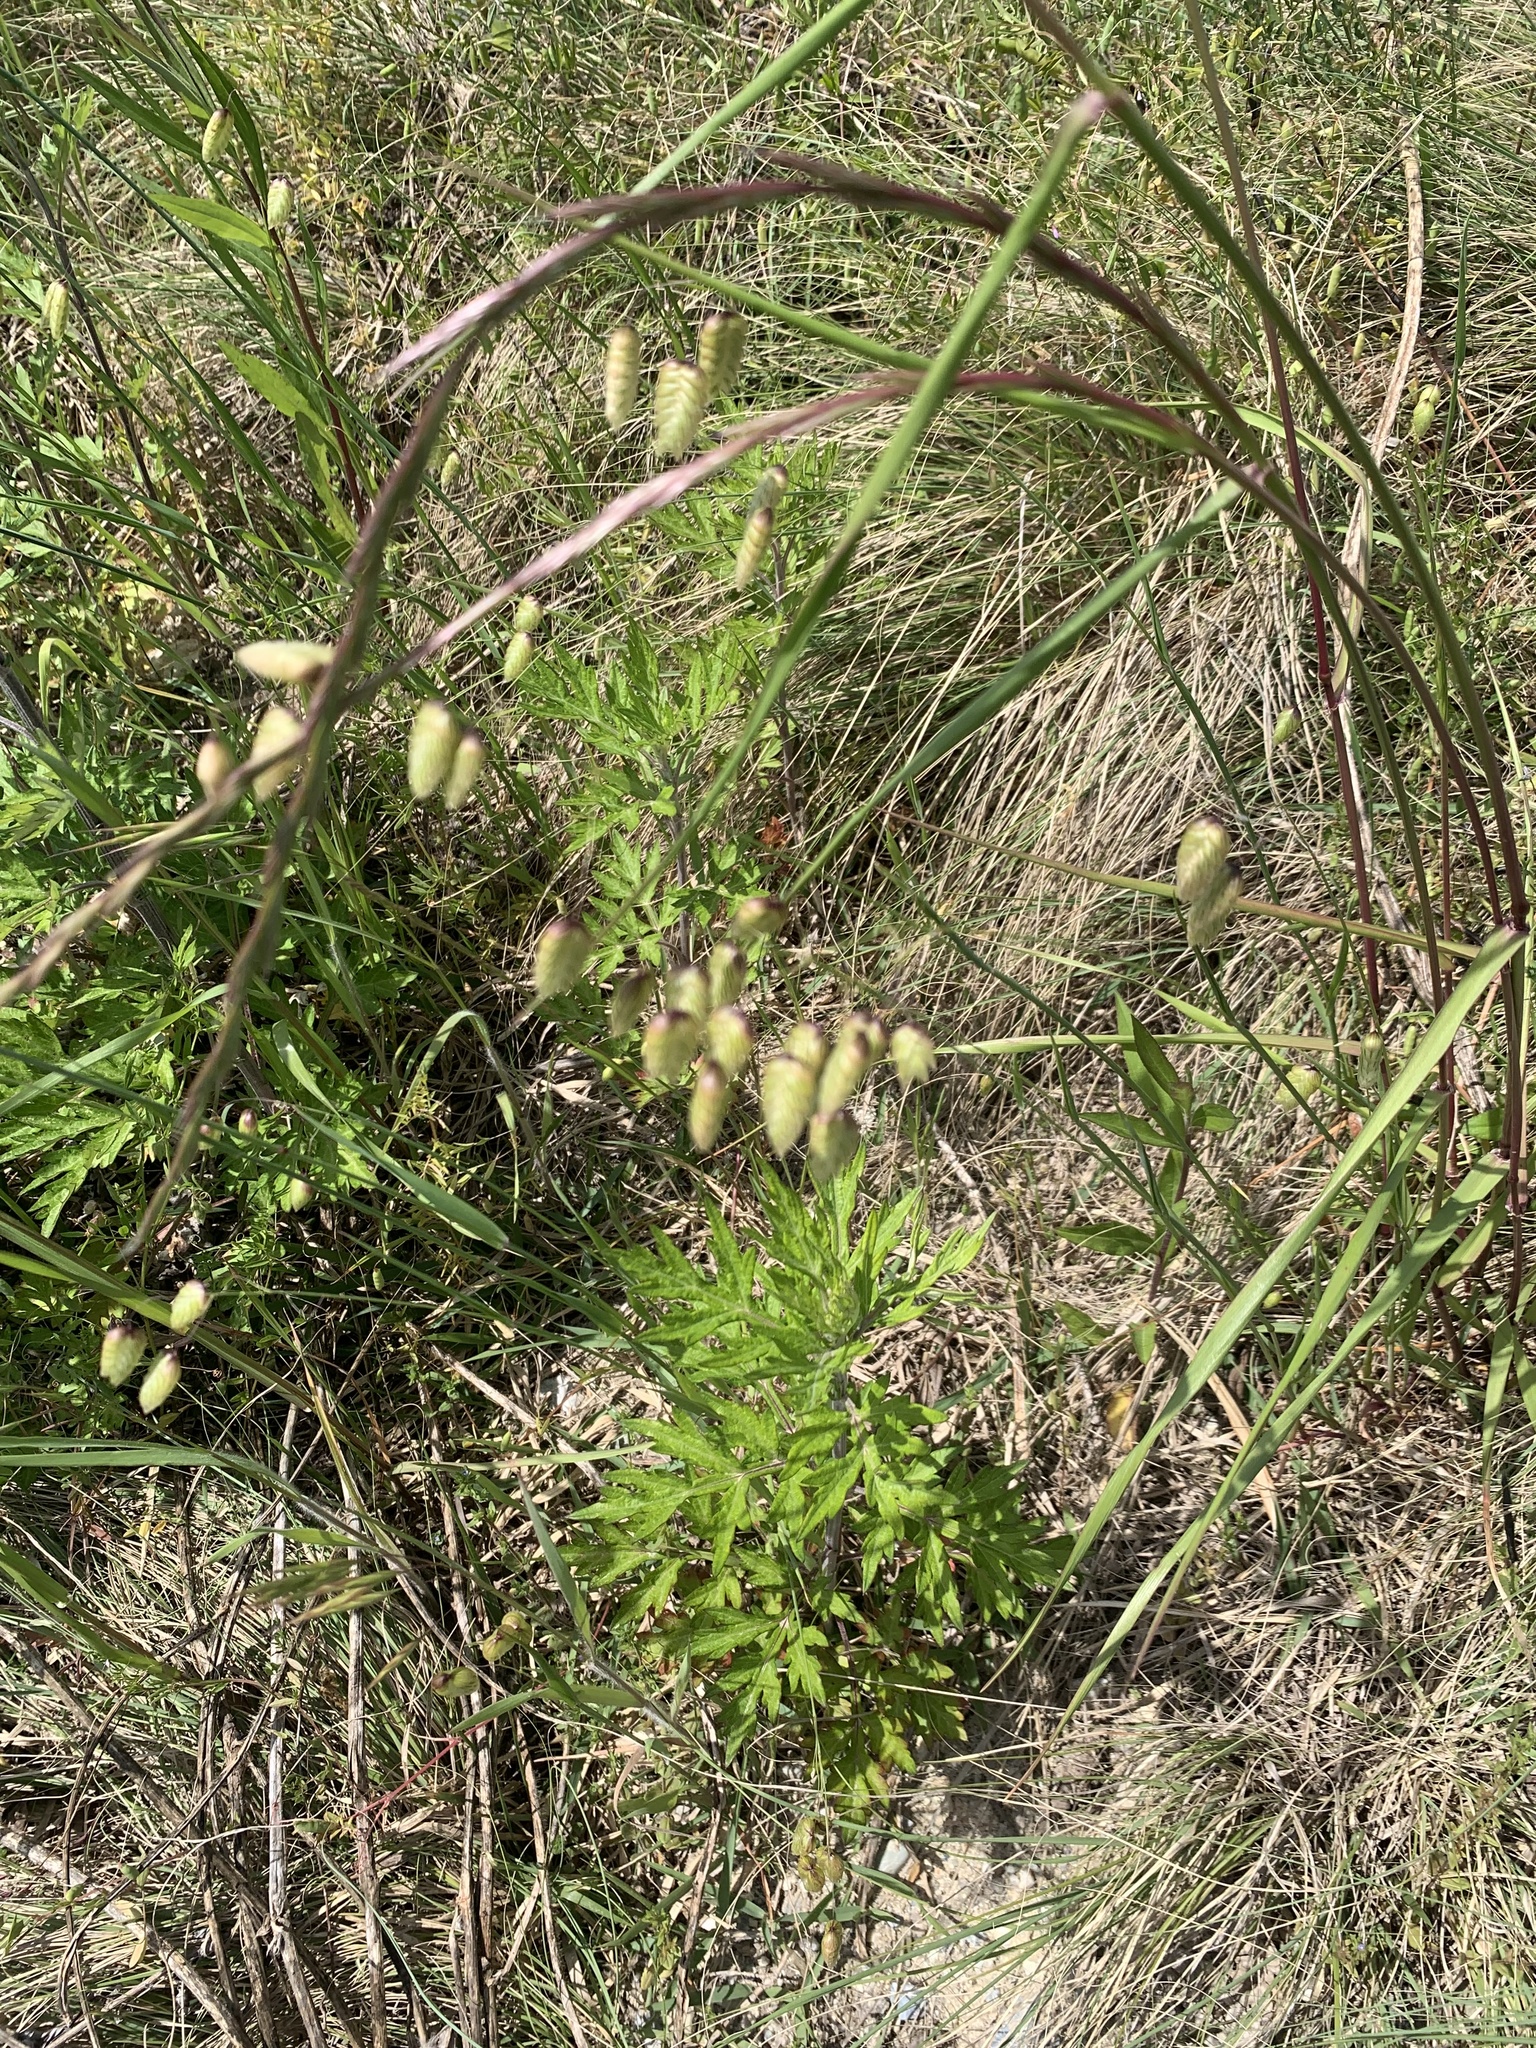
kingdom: Plantae
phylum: Tracheophyta
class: Liliopsida
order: Poales
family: Poaceae
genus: Briza
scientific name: Briza maxima
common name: Big quakinggrass
